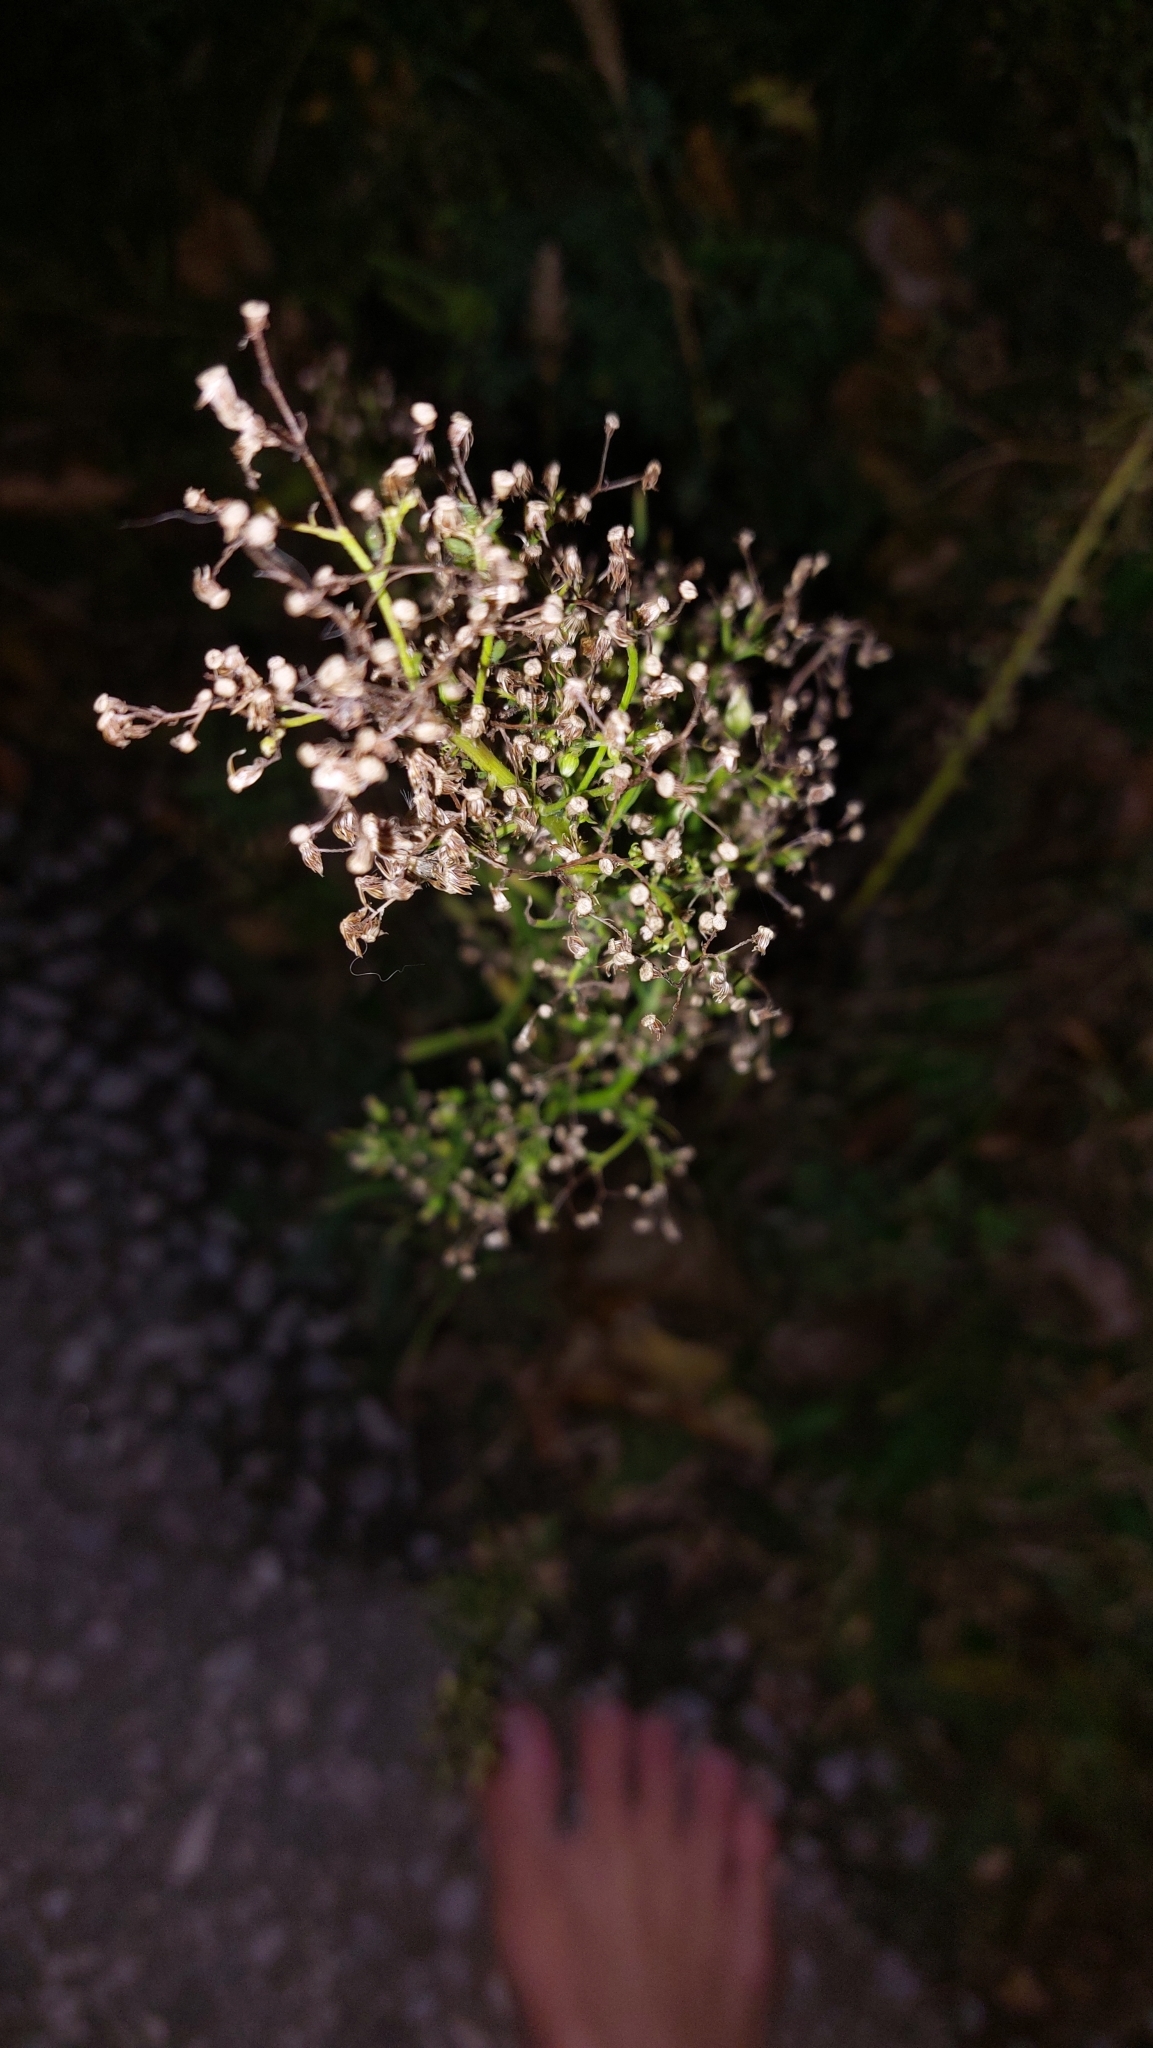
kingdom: Plantae
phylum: Tracheophyta
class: Magnoliopsida
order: Asterales
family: Asteraceae
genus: Erigeron
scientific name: Erigeron canadensis
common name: Canadian fleabane
